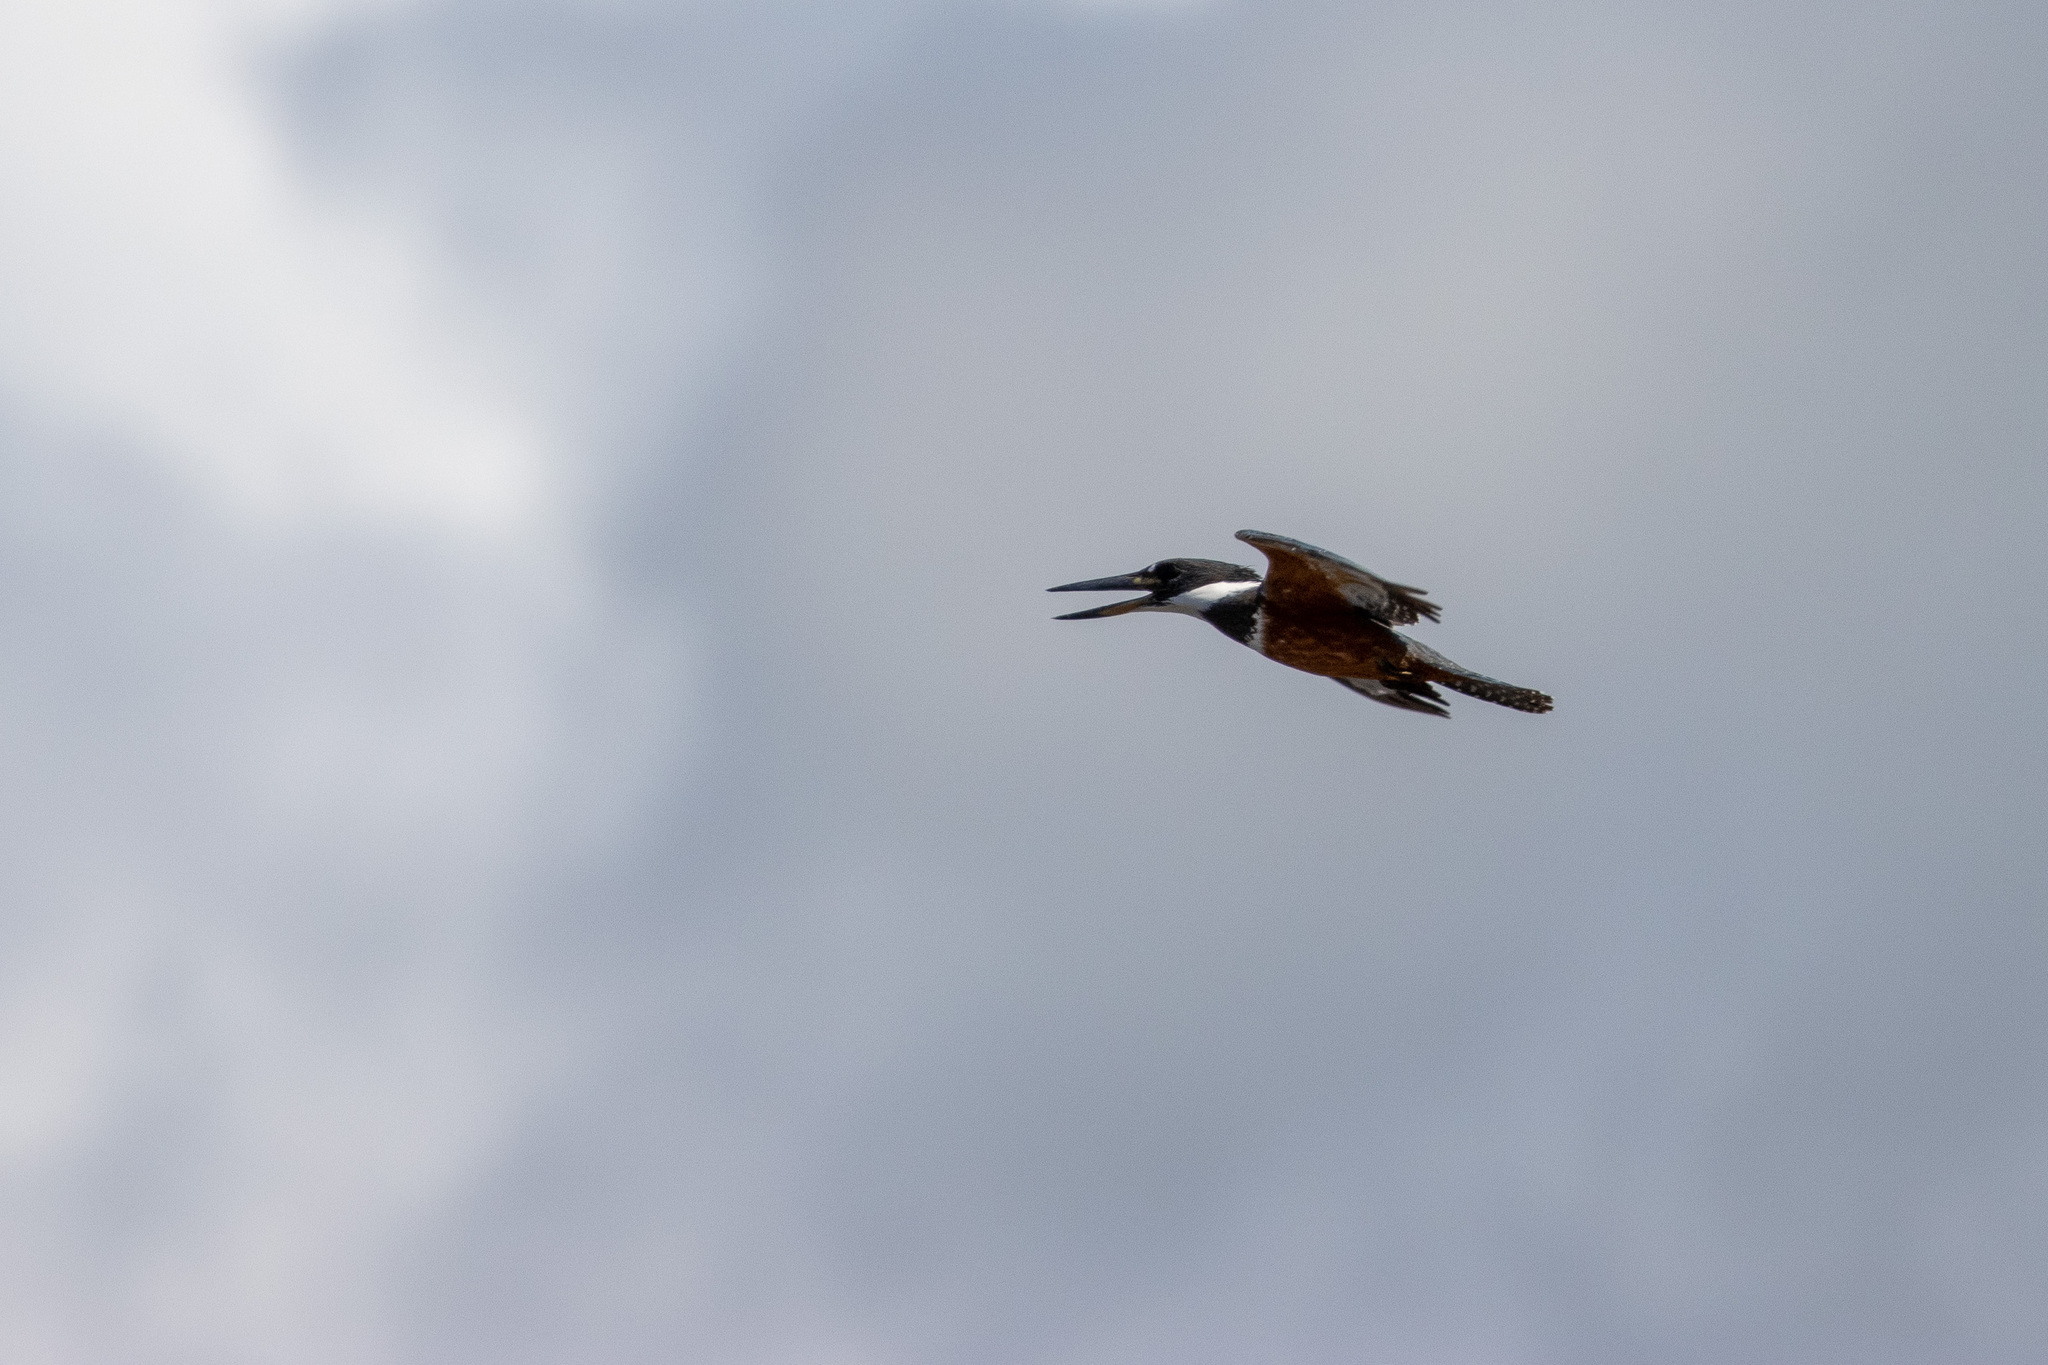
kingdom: Animalia
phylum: Chordata
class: Aves
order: Coraciiformes
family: Alcedinidae
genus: Megaceryle
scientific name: Megaceryle torquata
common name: Ringed kingfisher
